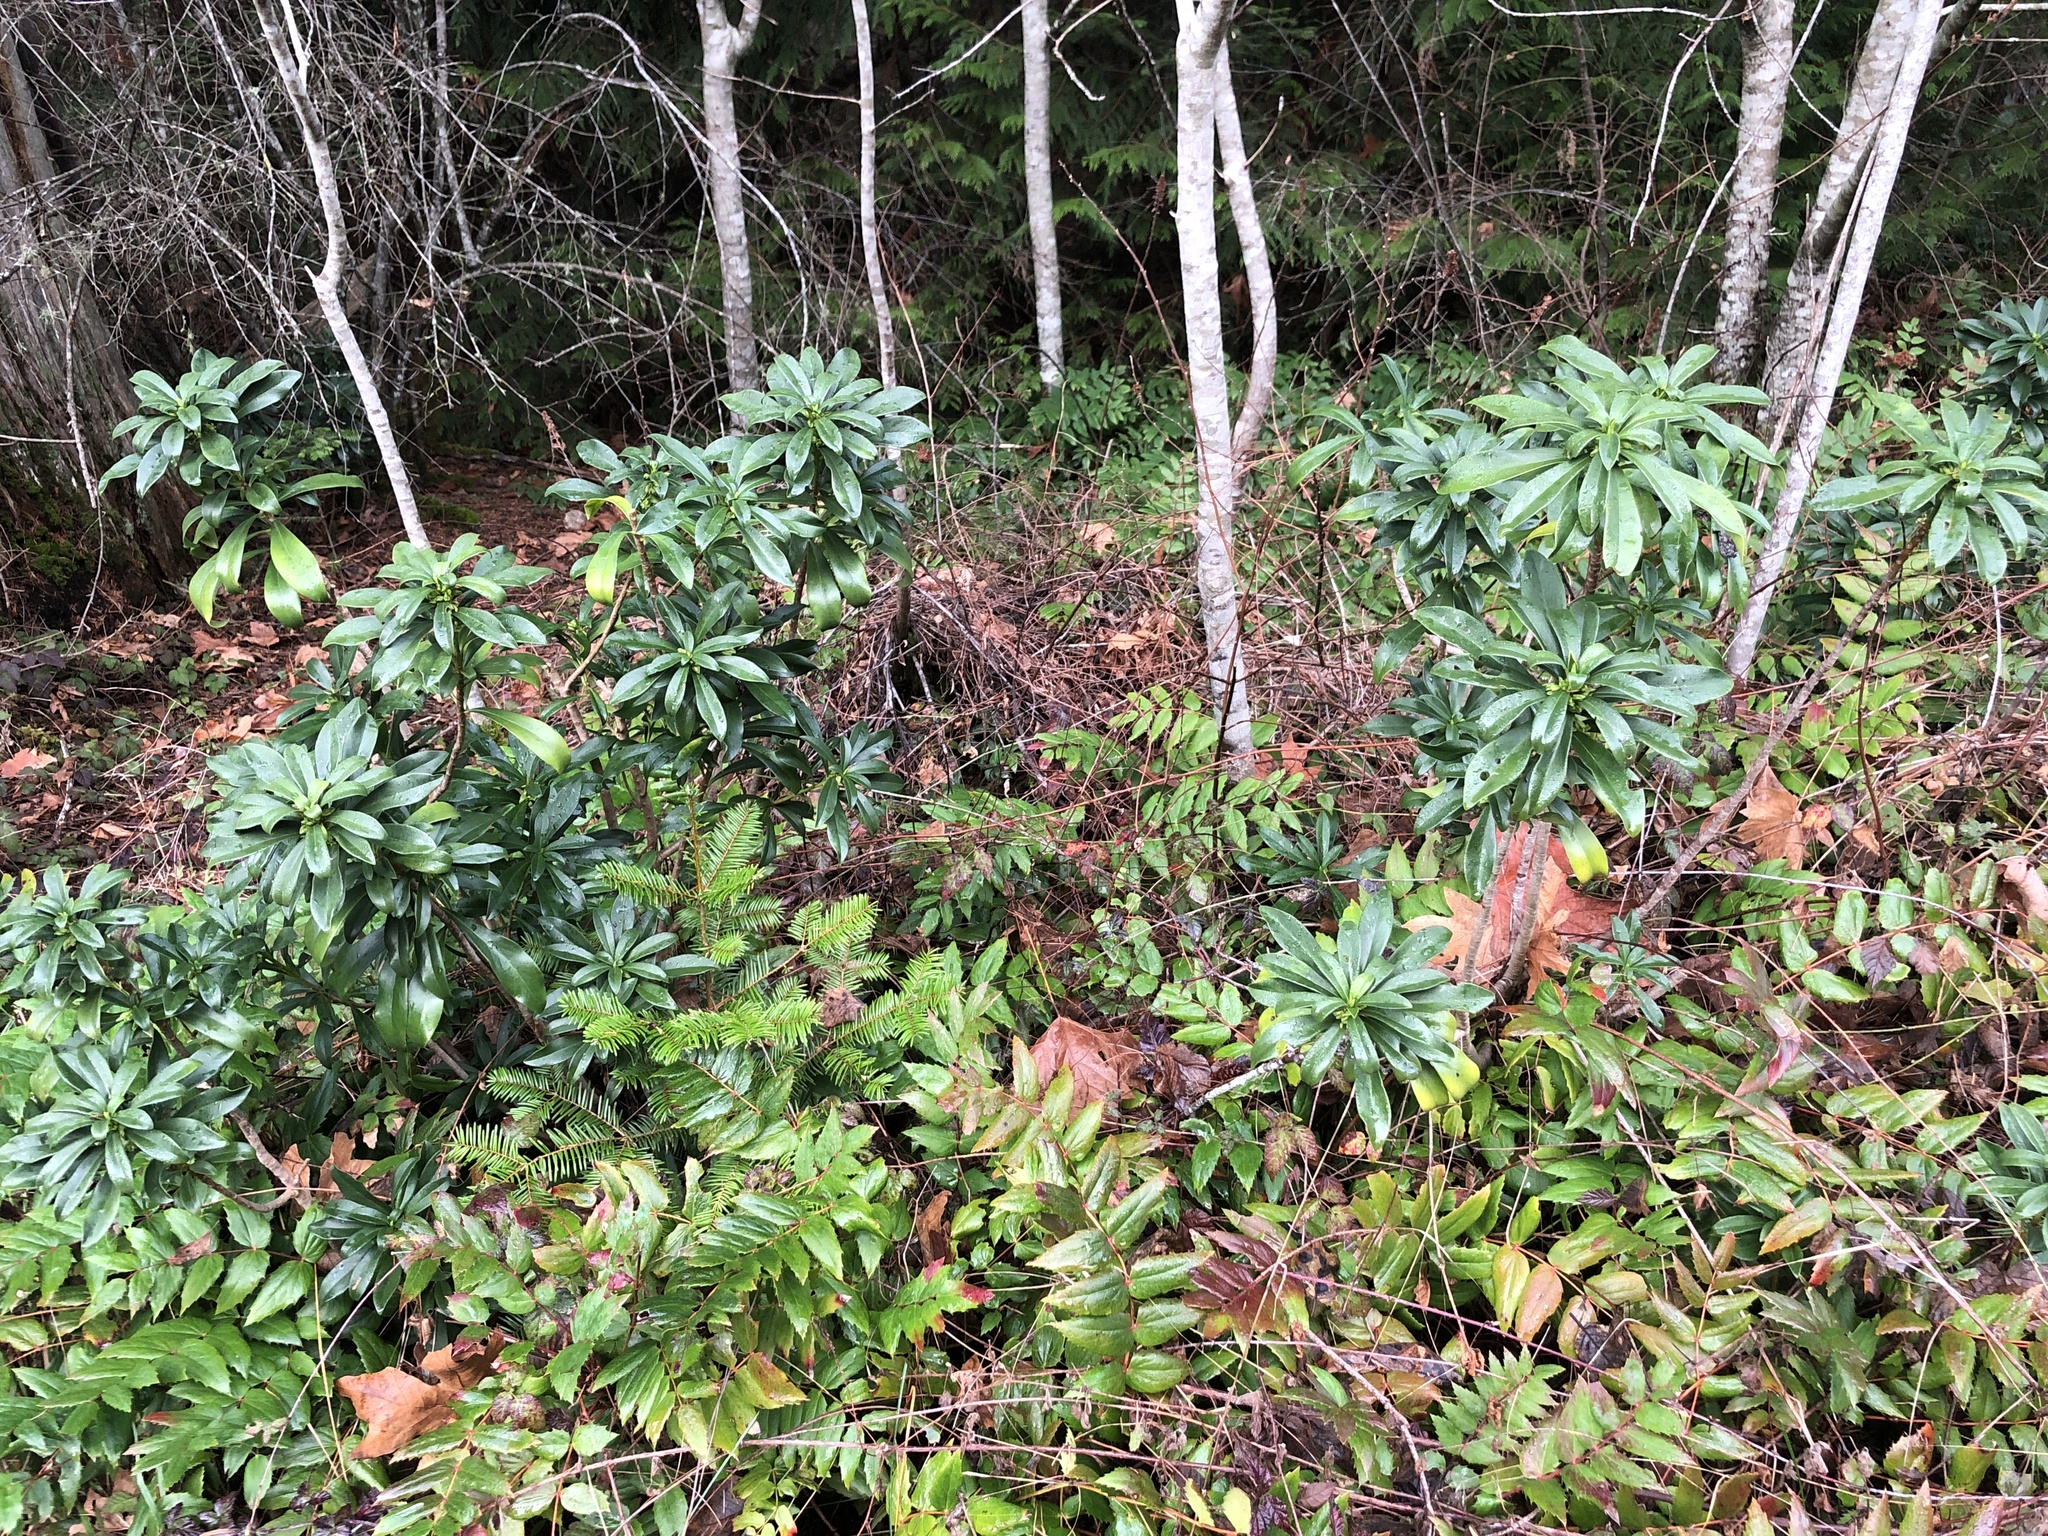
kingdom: Plantae
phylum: Tracheophyta
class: Magnoliopsida
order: Malvales
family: Thymelaeaceae
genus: Daphne
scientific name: Daphne laureola
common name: Spurge-laurel
